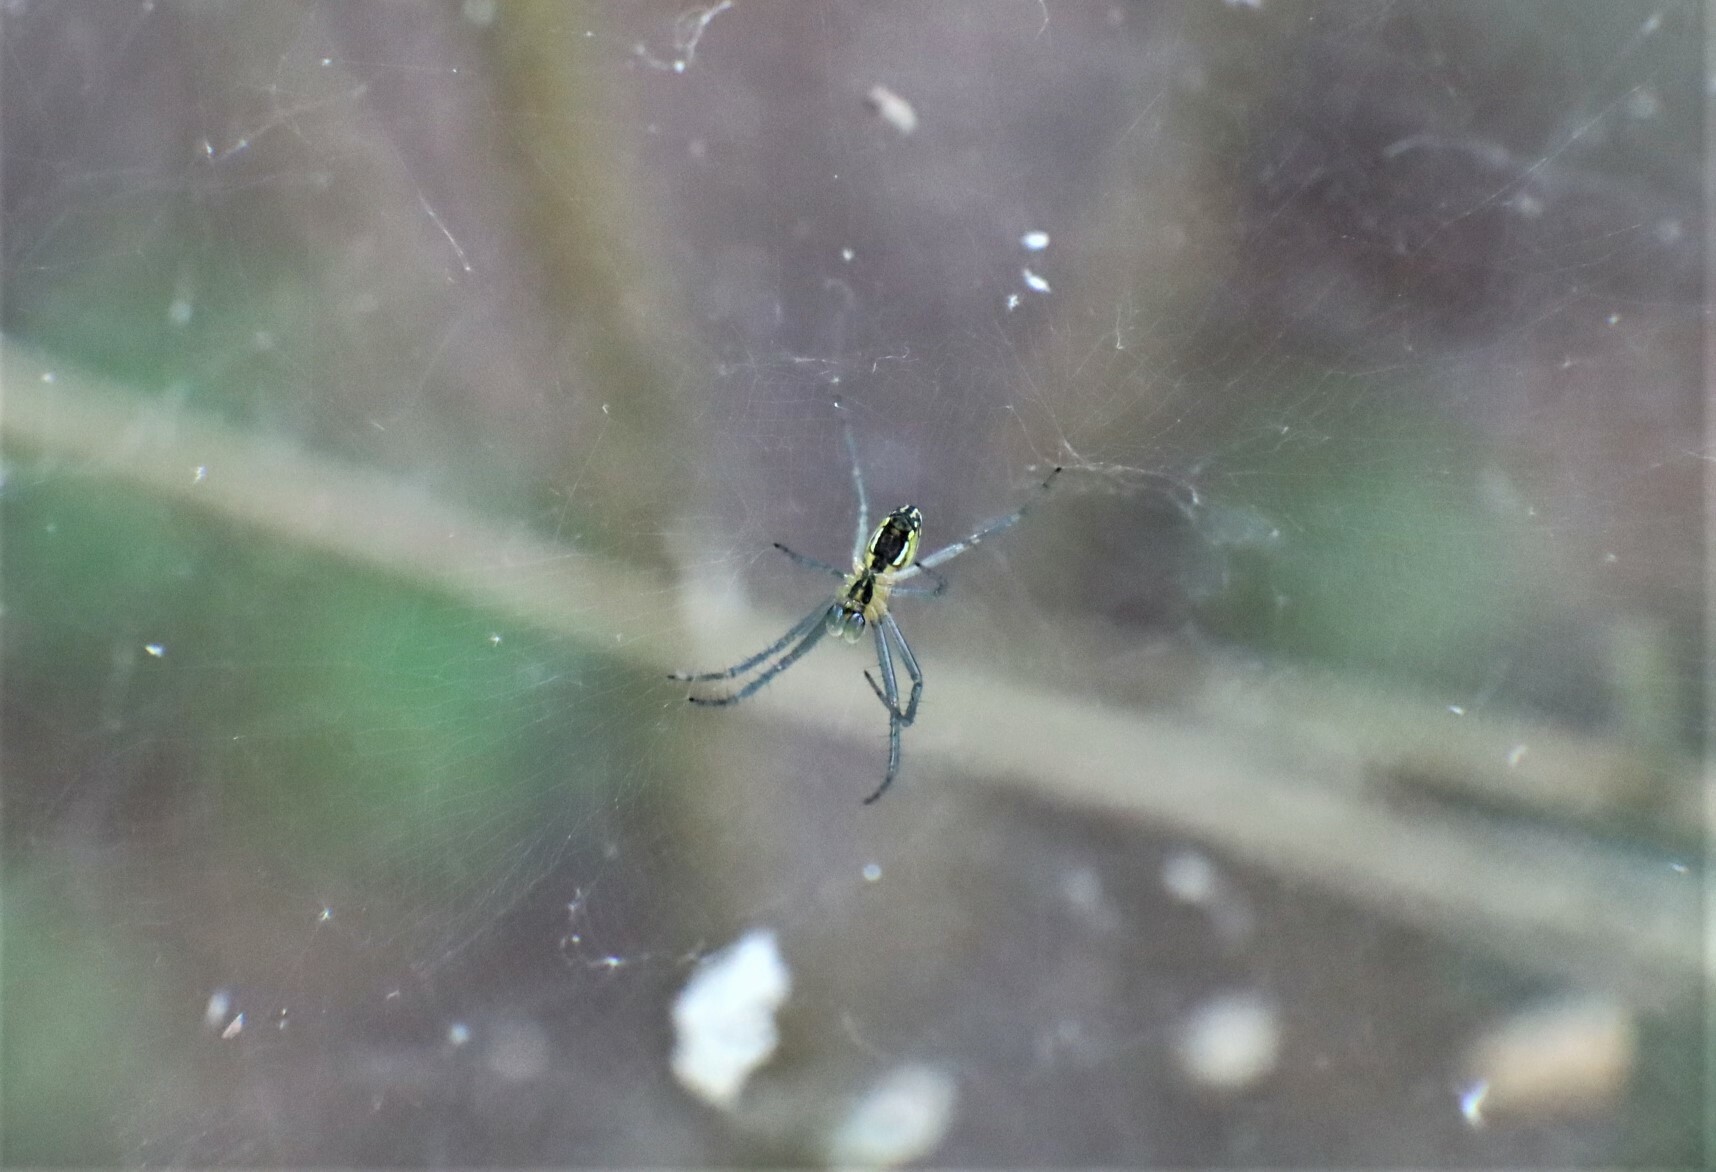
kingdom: Animalia
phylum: Arthropoda
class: Arachnida
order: Araneae
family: Araneidae
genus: Mecynogea
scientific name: Mecynogea lemniscata
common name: Orb weavers
